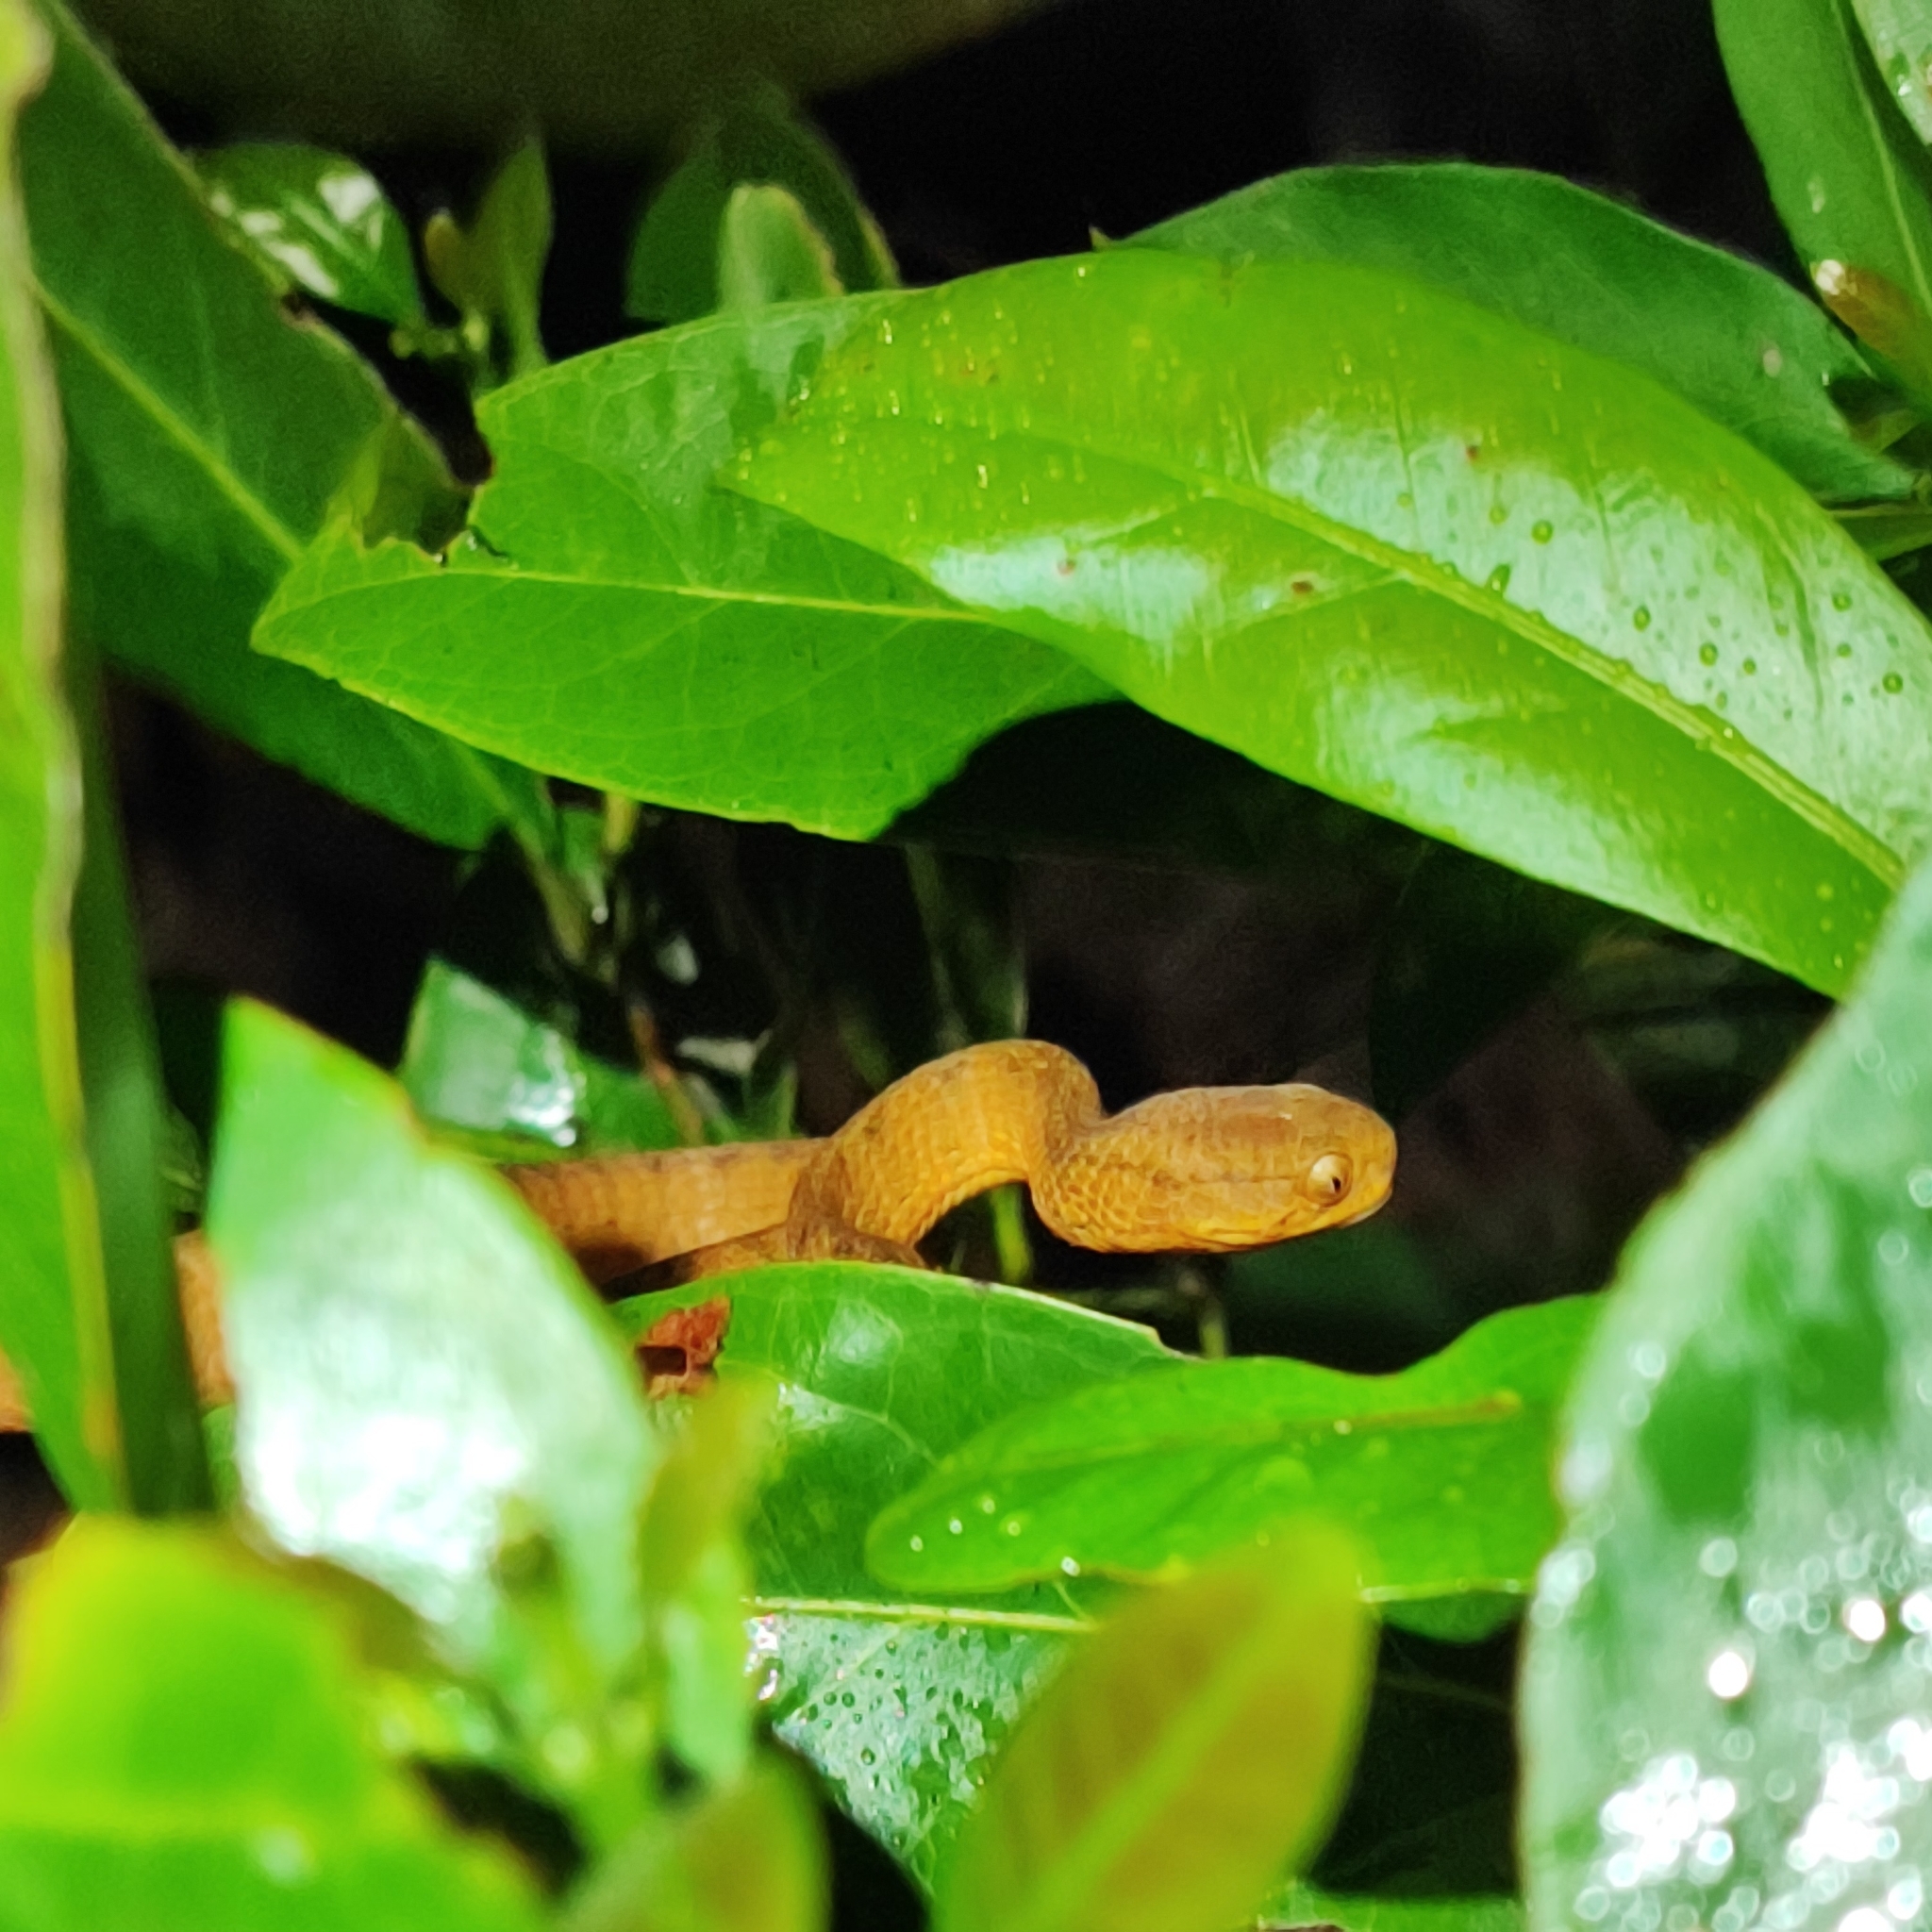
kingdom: Animalia
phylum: Chordata
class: Squamata
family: Pareidae
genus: Pareas
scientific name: Pareas carinatus
